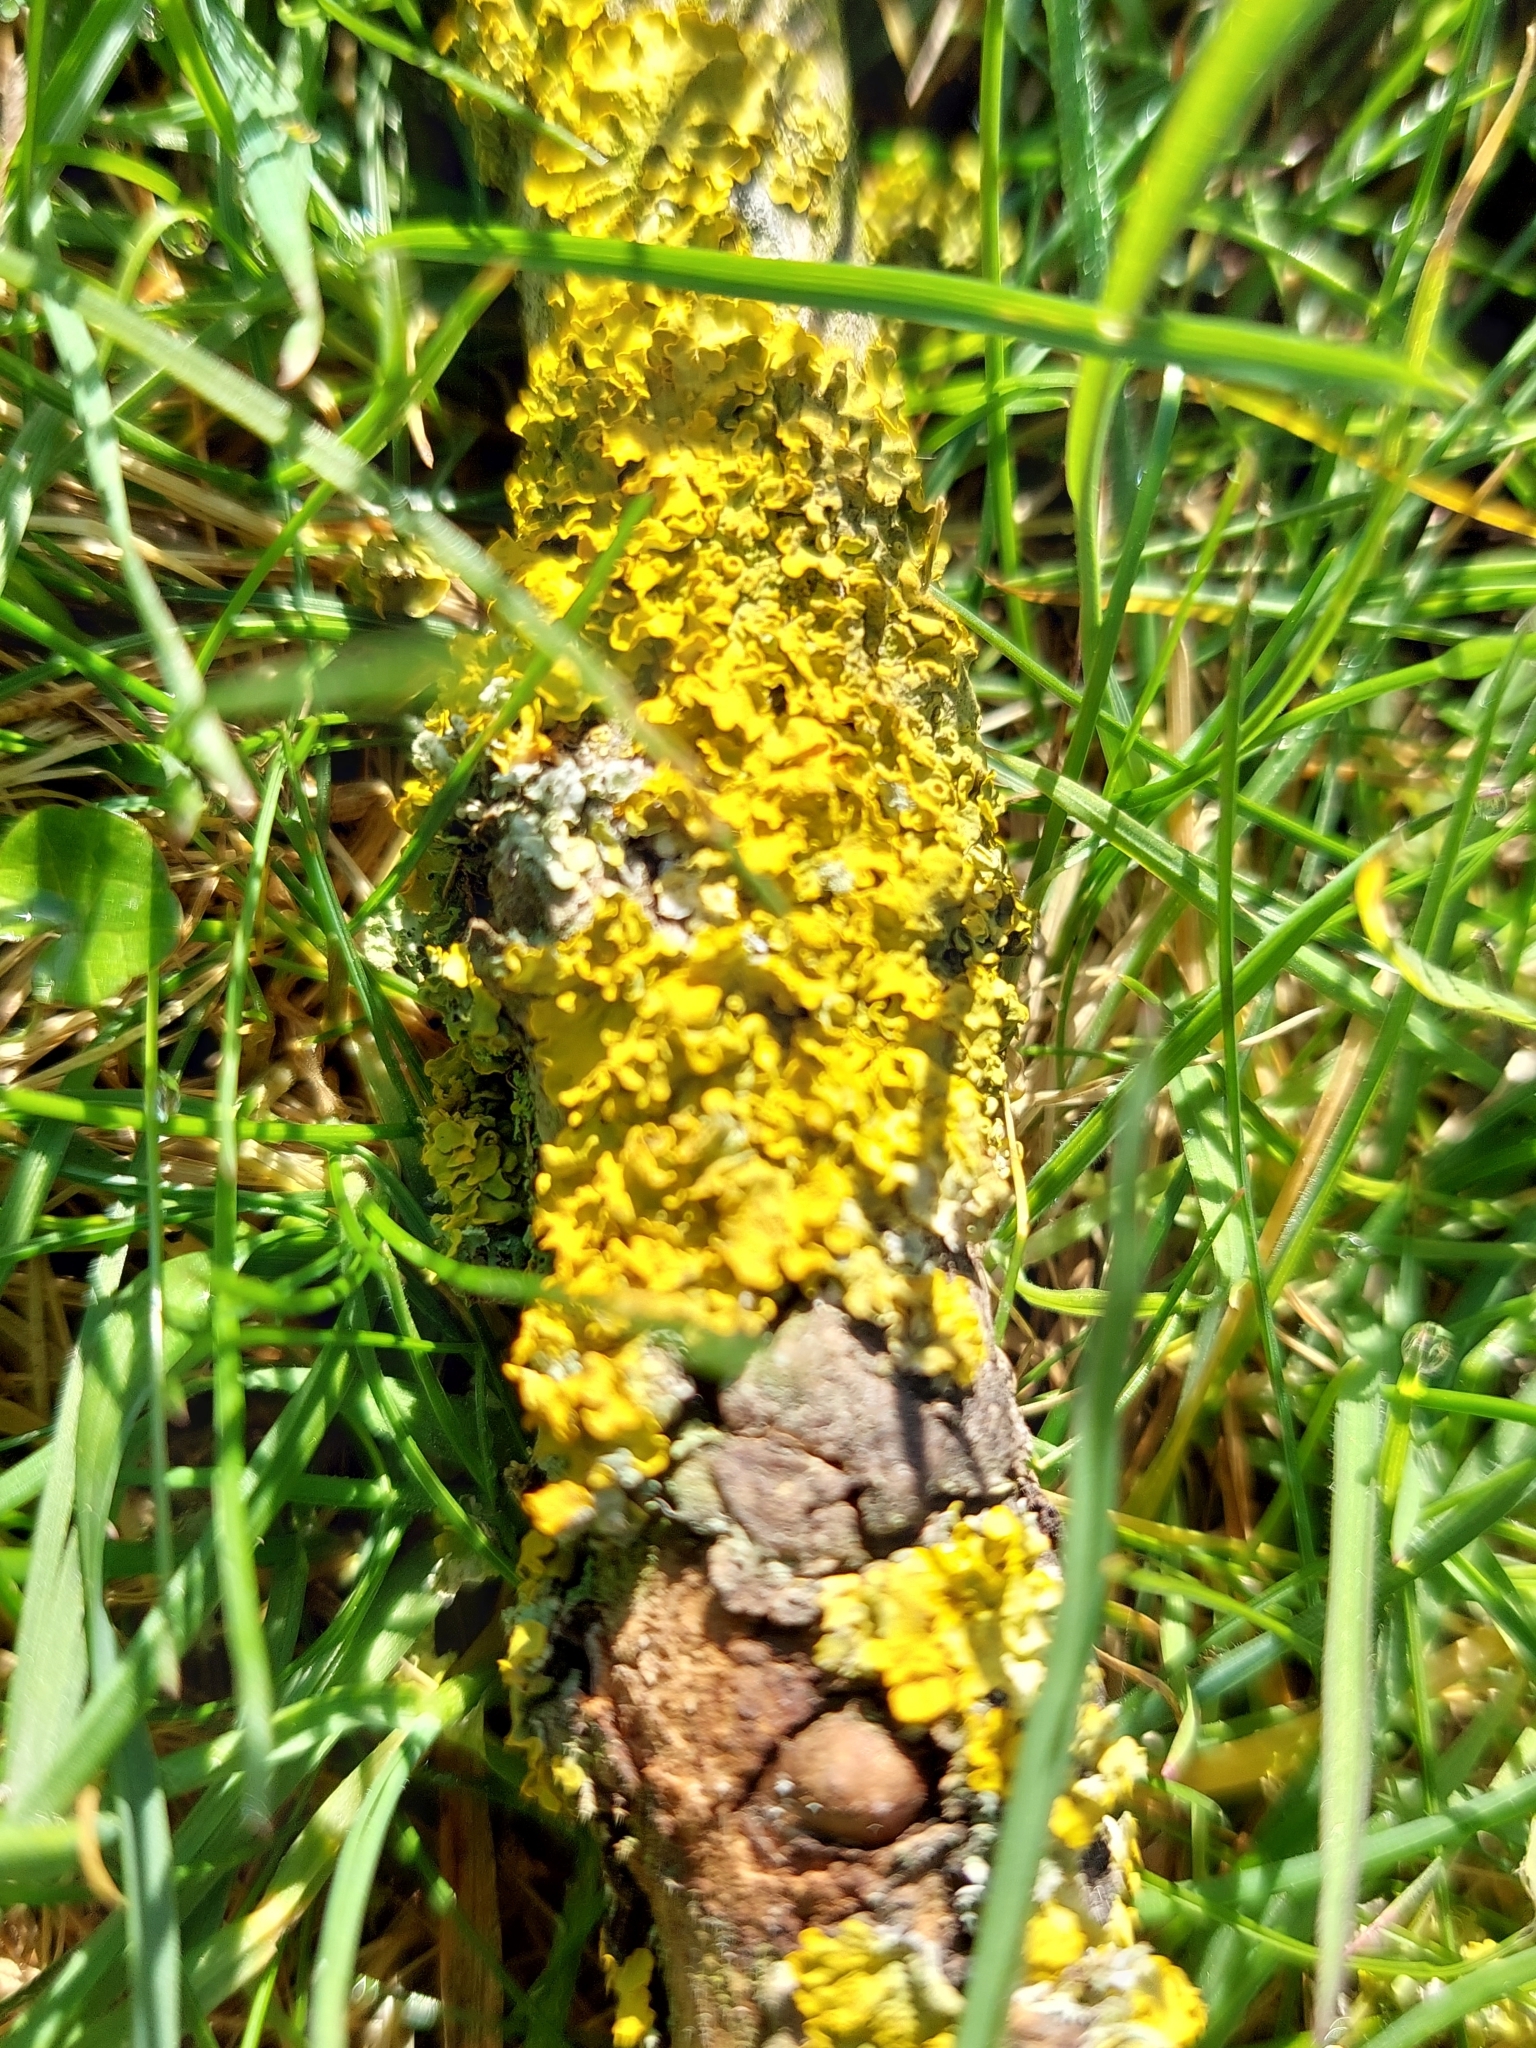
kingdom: Fungi
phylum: Ascomycota
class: Lecanoromycetes
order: Teloschistales
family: Teloschistaceae
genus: Xanthoria
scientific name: Xanthoria parietina
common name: Common orange lichen
